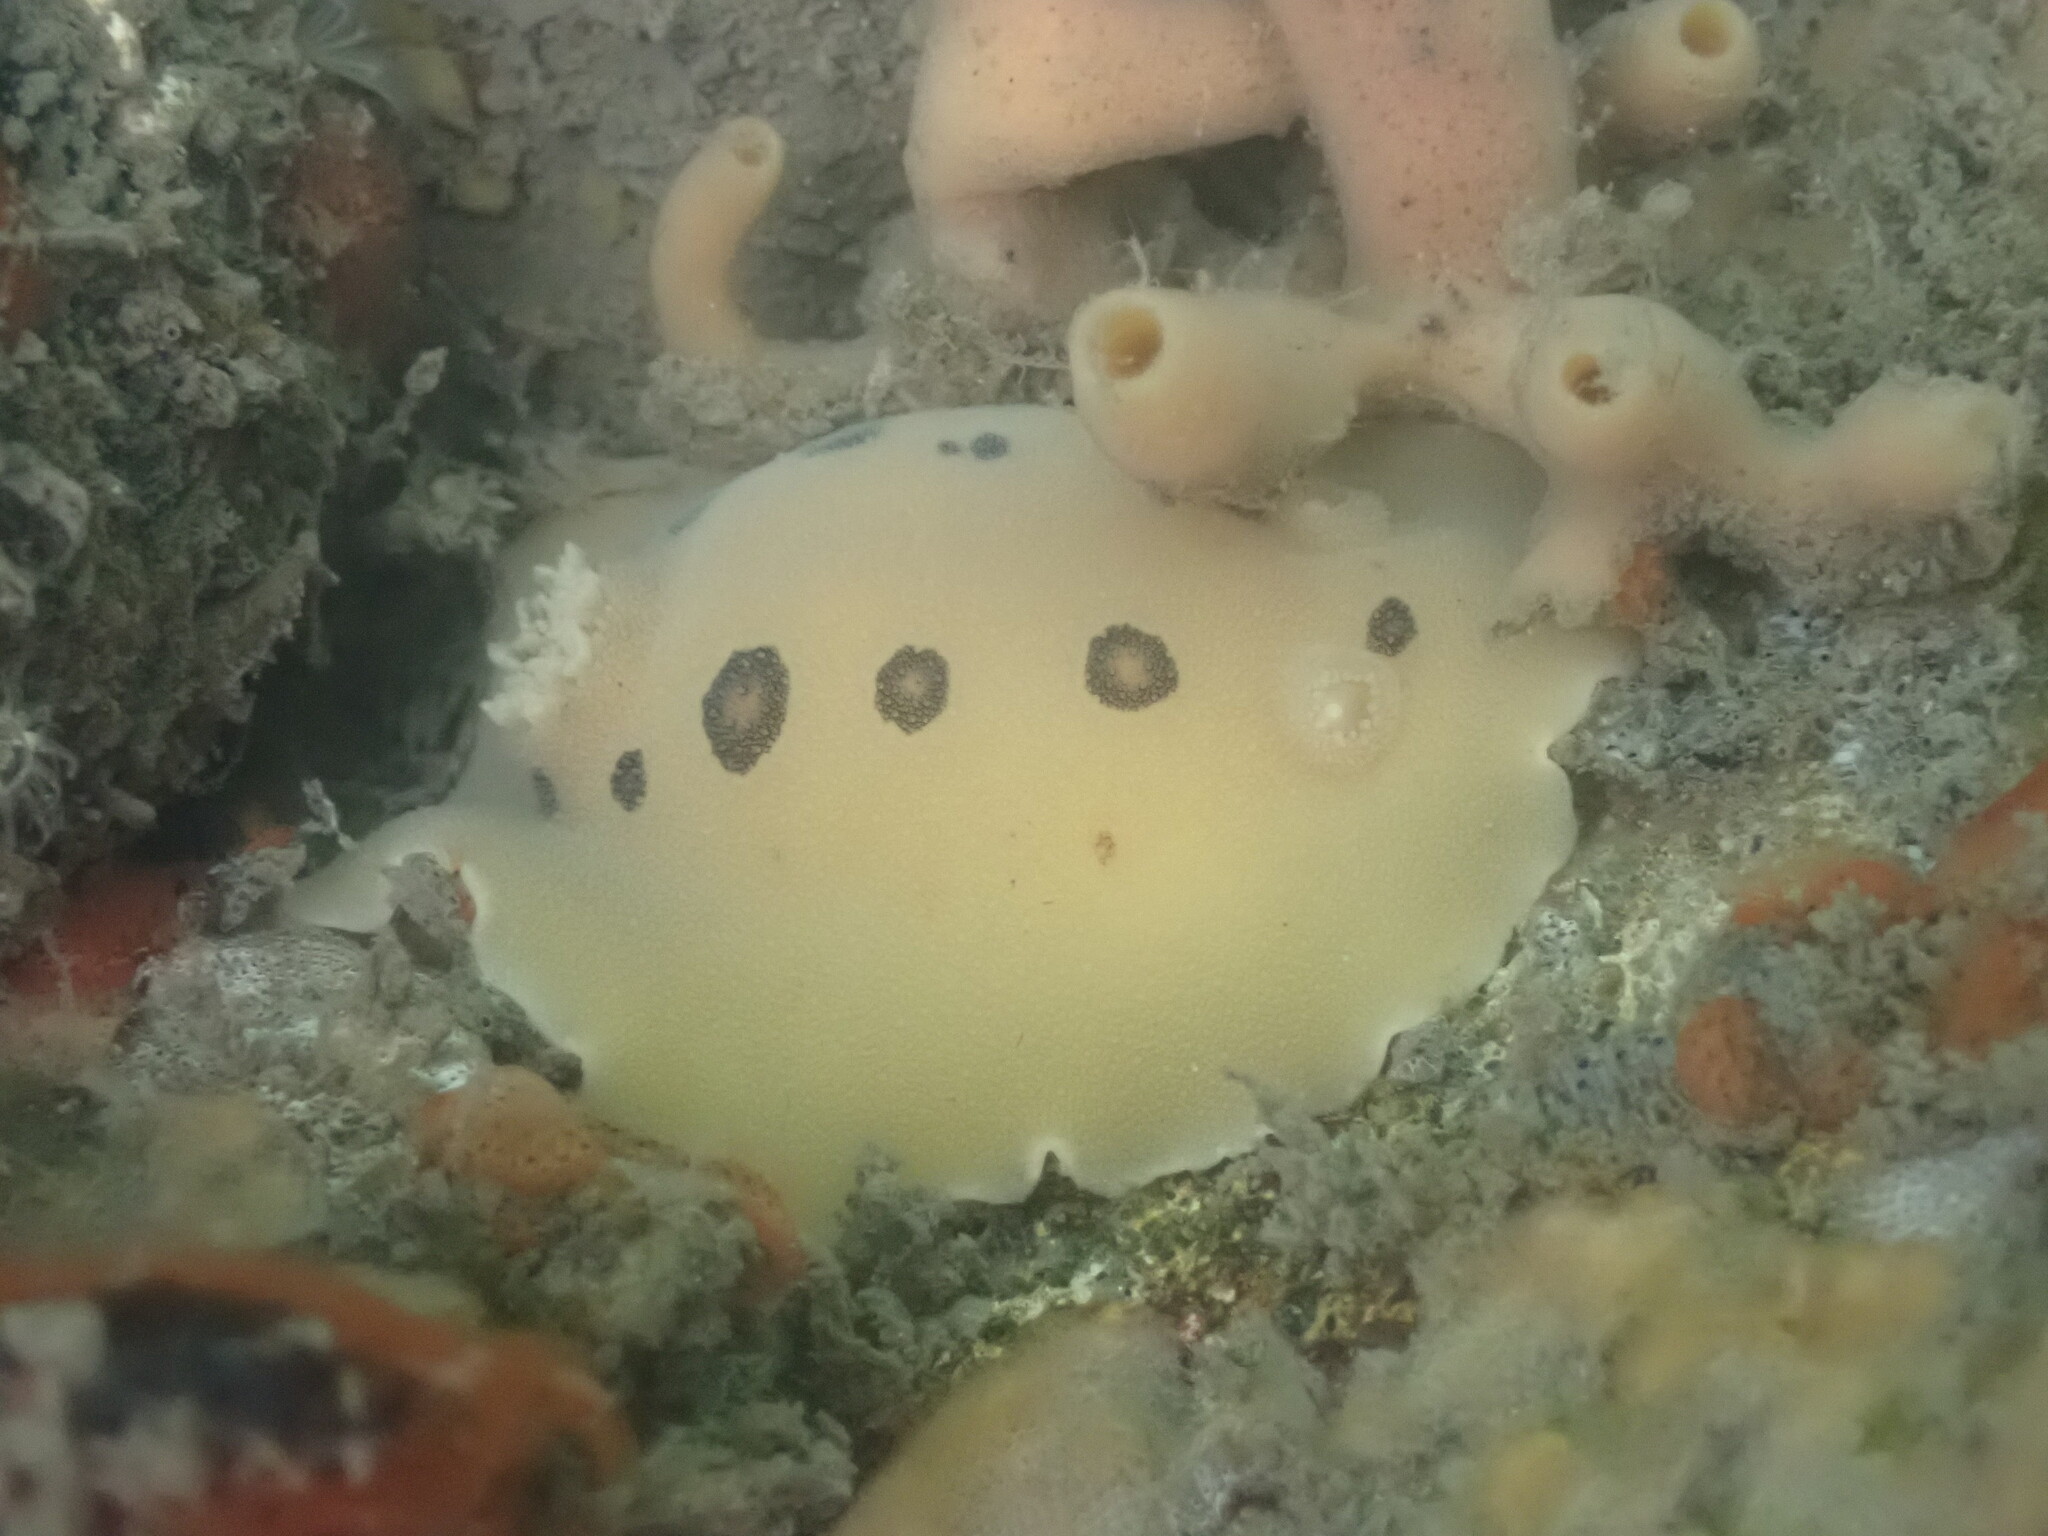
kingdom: Animalia
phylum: Mollusca
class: Gastropoda
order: Nudibranchia
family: Discodorididae
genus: Diaulula
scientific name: Diaulula sandiegensis
